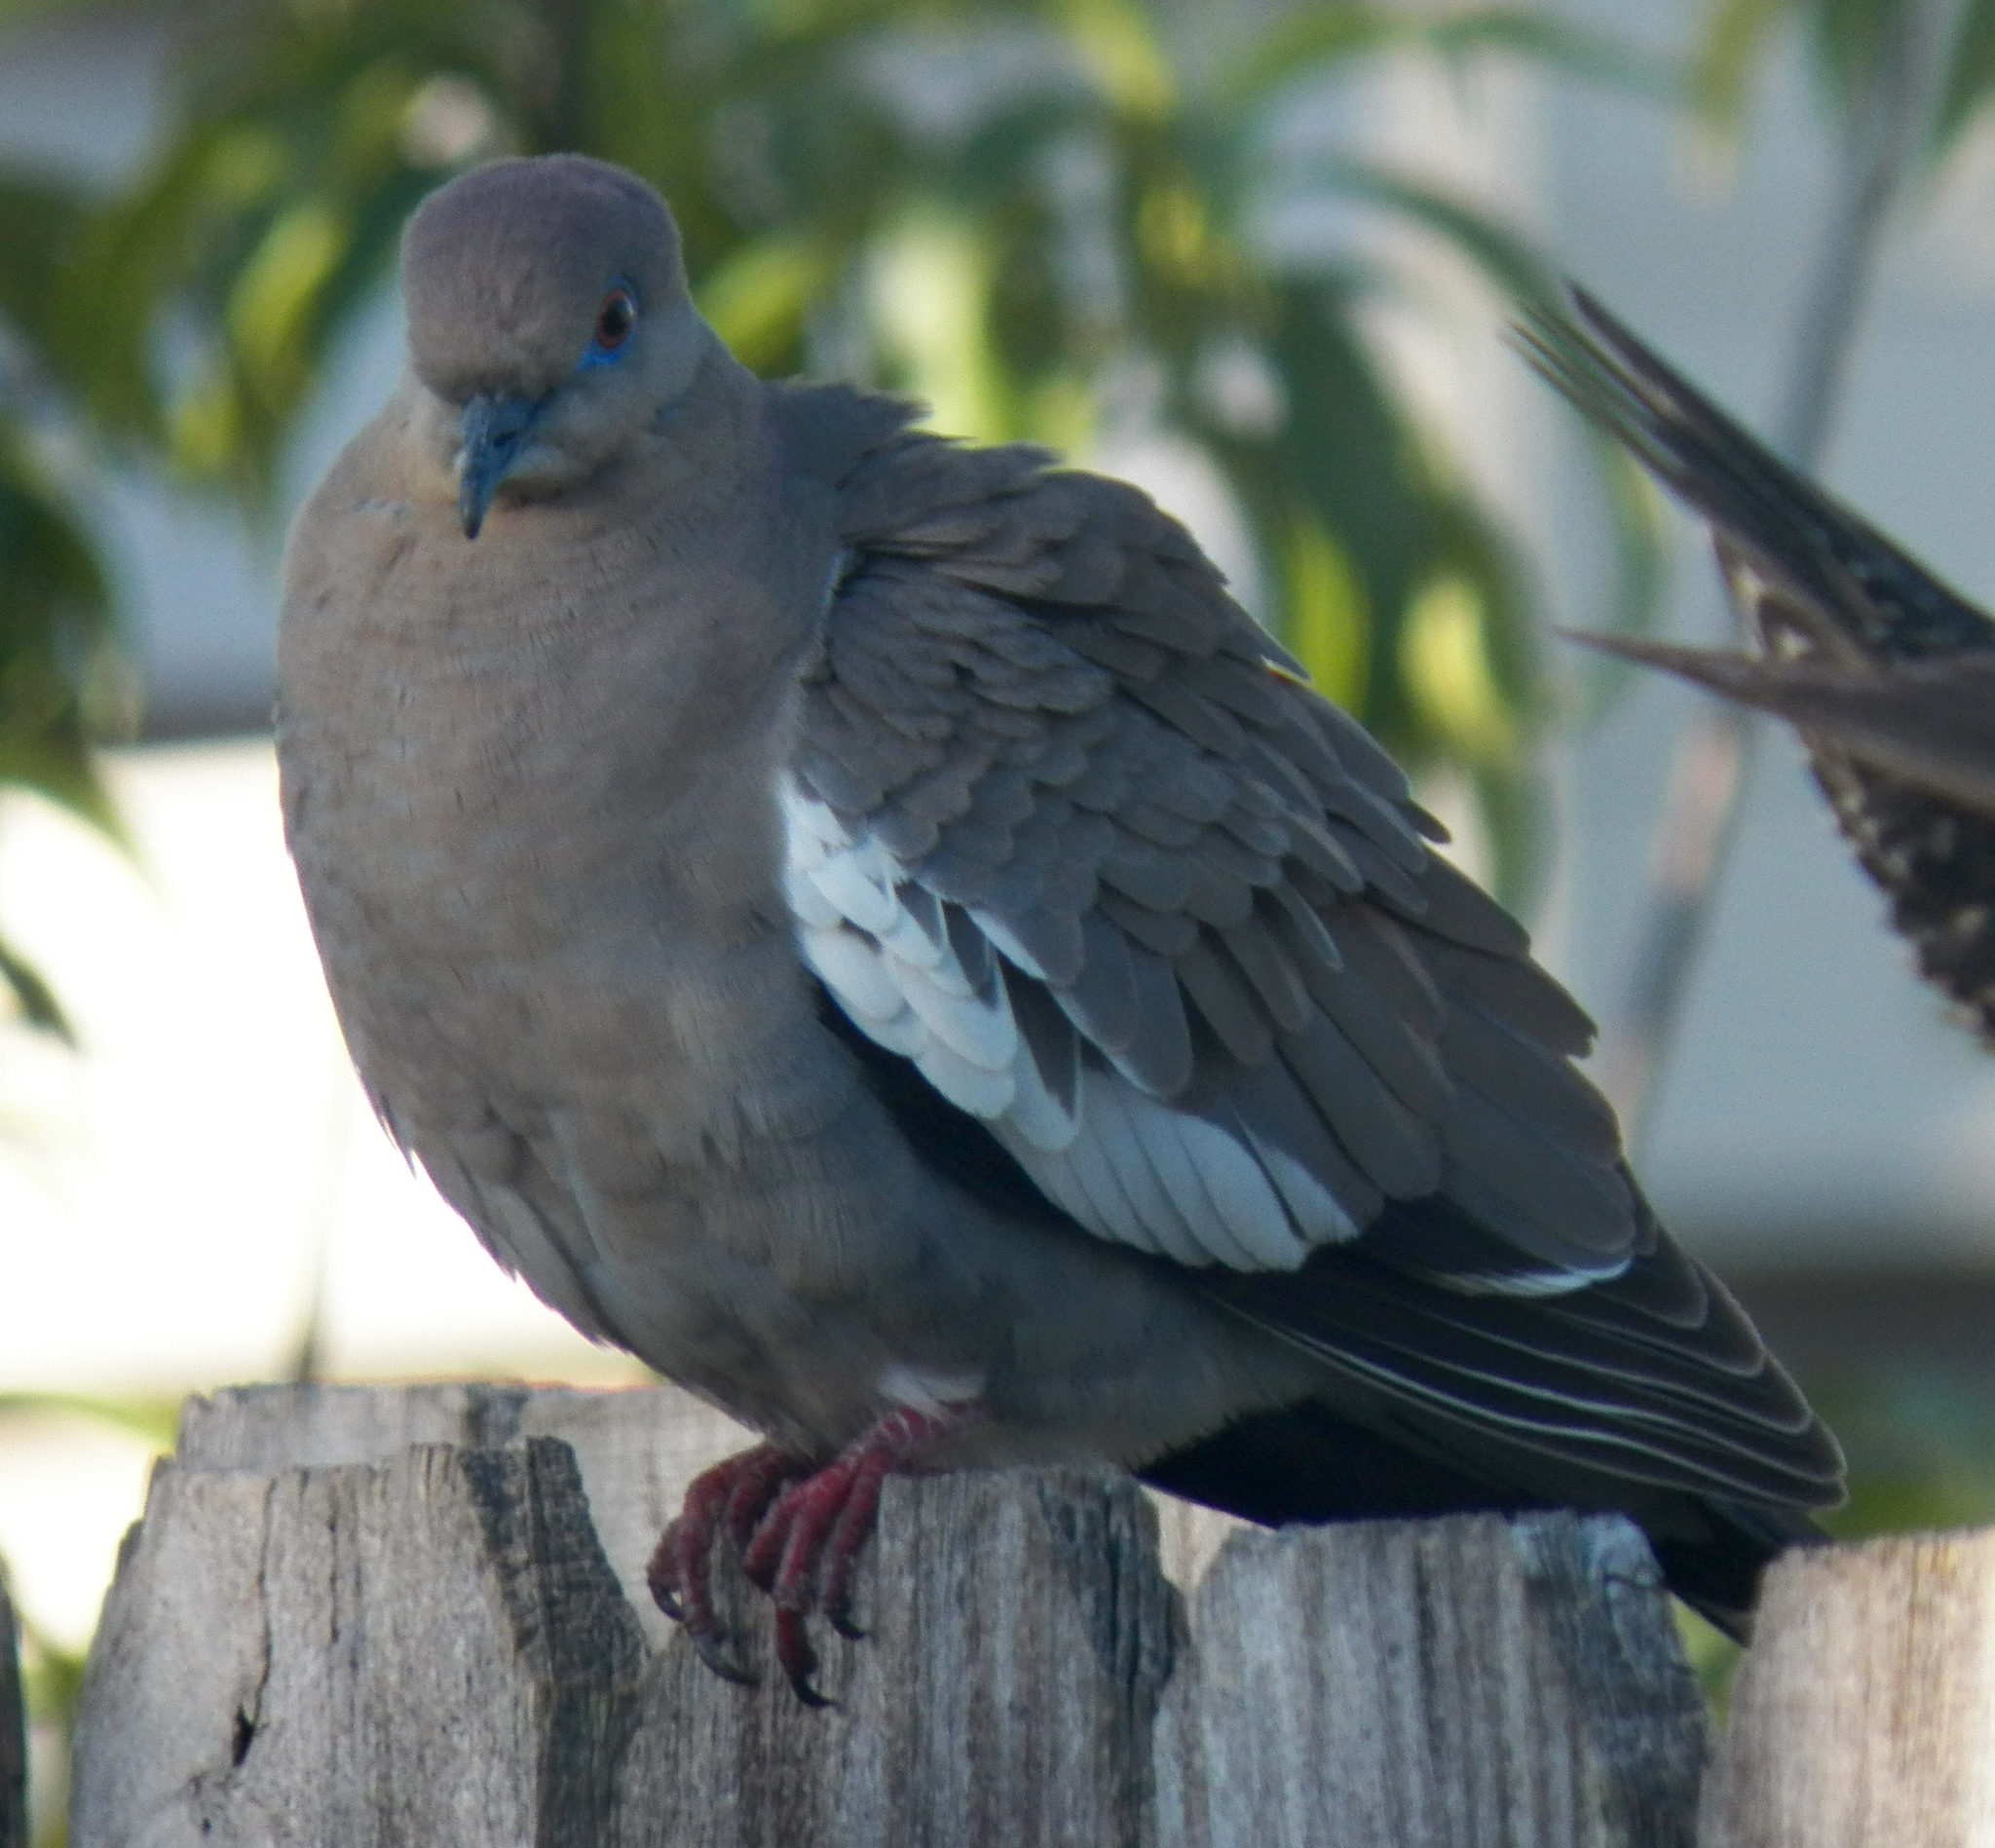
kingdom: Animalia
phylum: Chordata
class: Aves
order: Columbiformes
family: Columbidae
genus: Zenaida
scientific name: Zenaida asiatica
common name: White-winged dove
